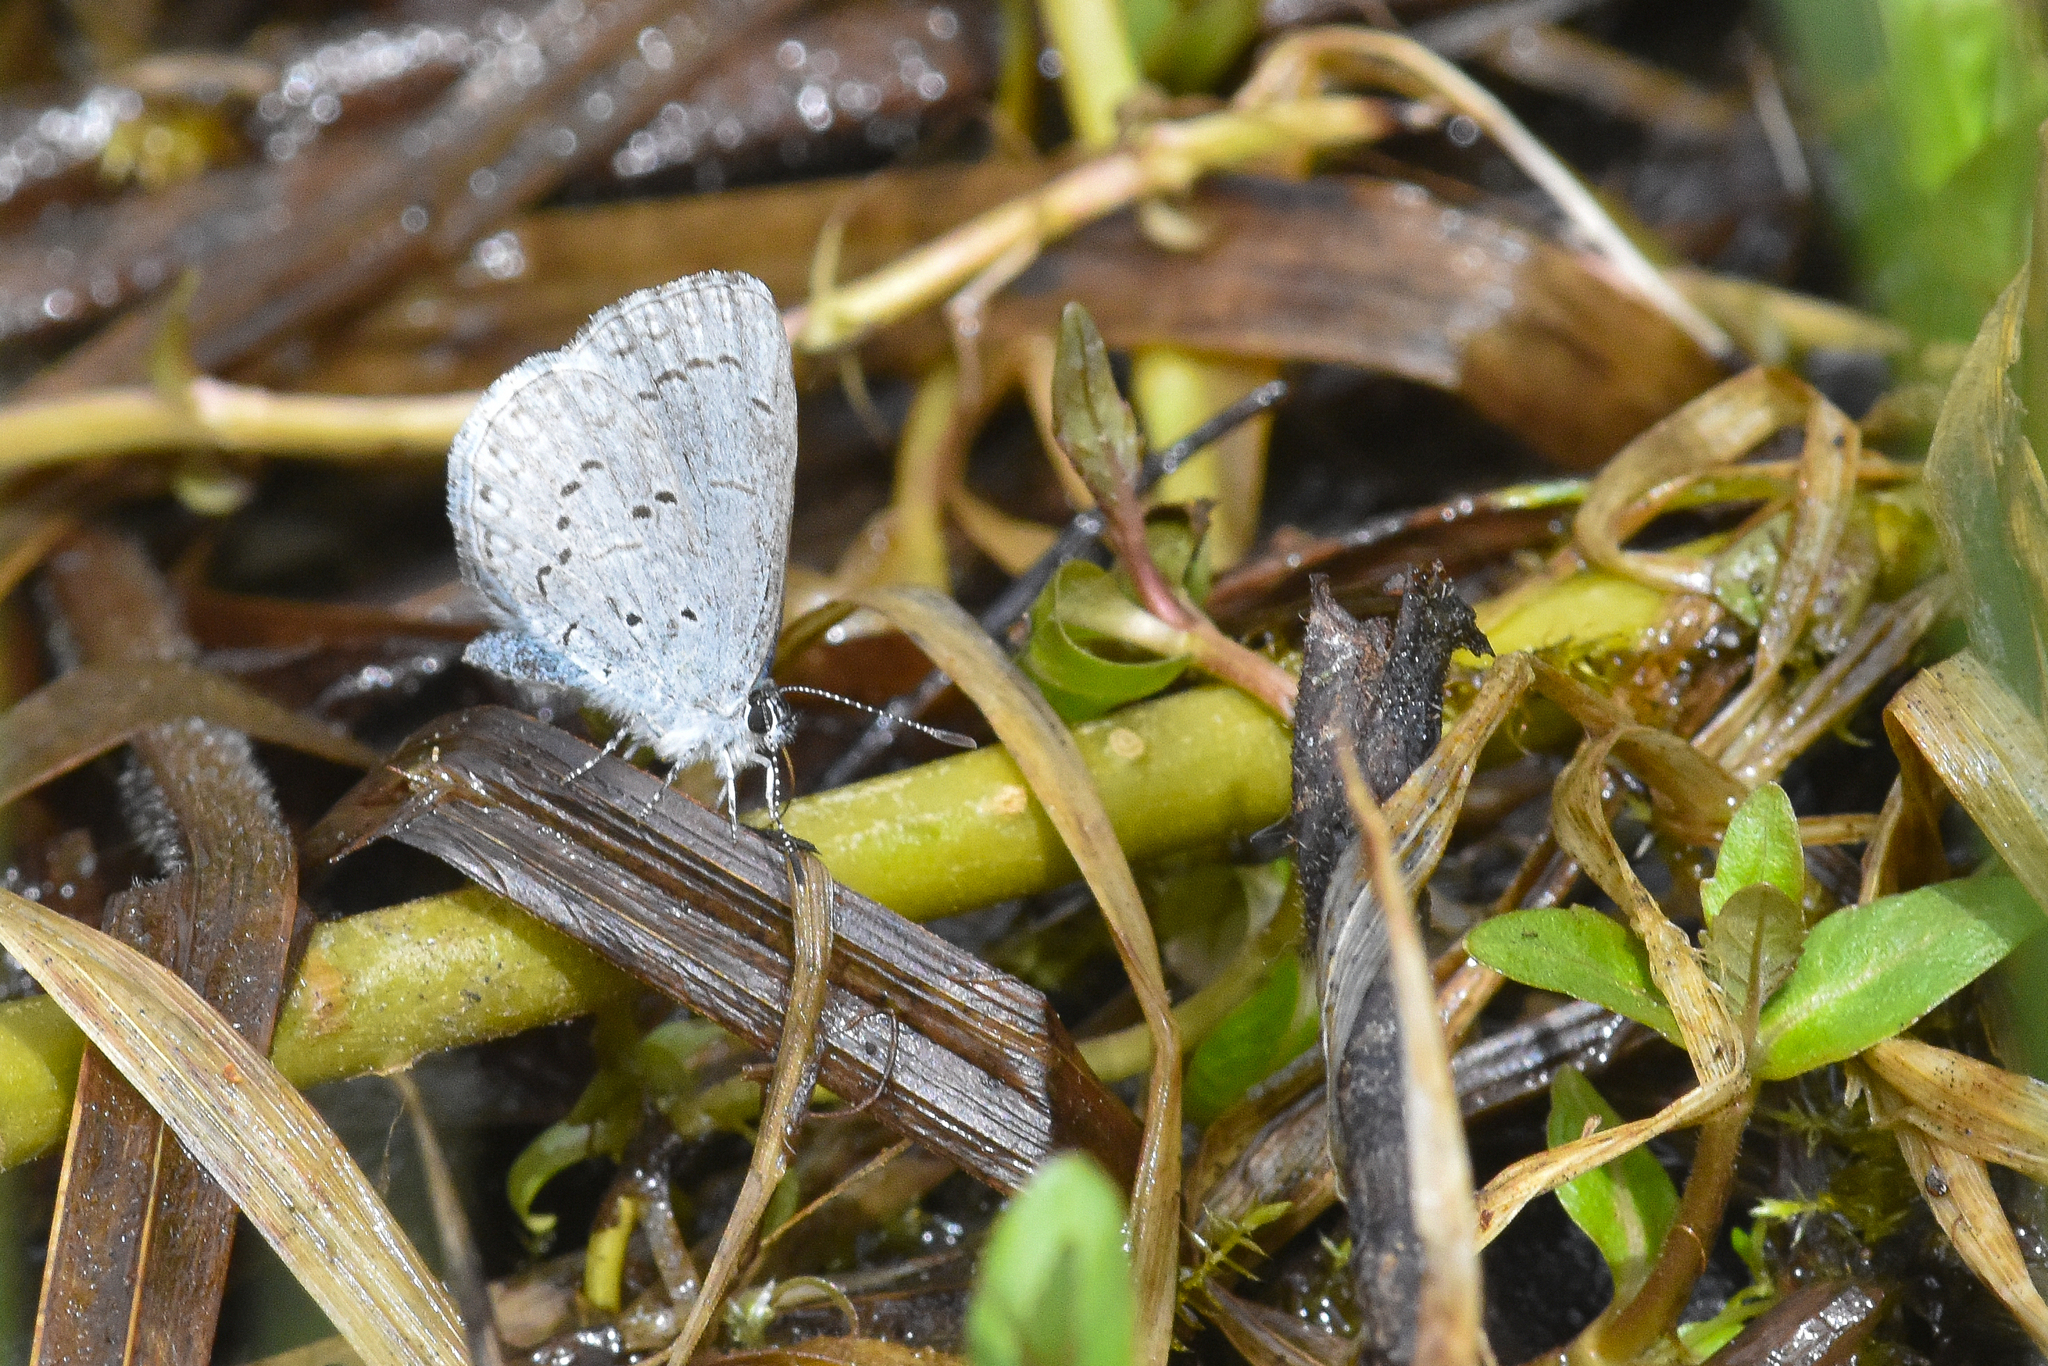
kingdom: Animalia
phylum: Arthropoda
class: Insecta
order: Lepidoptera
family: Lycaenidae
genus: Celastrina
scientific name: Celastrina ladon
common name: Spring azure
